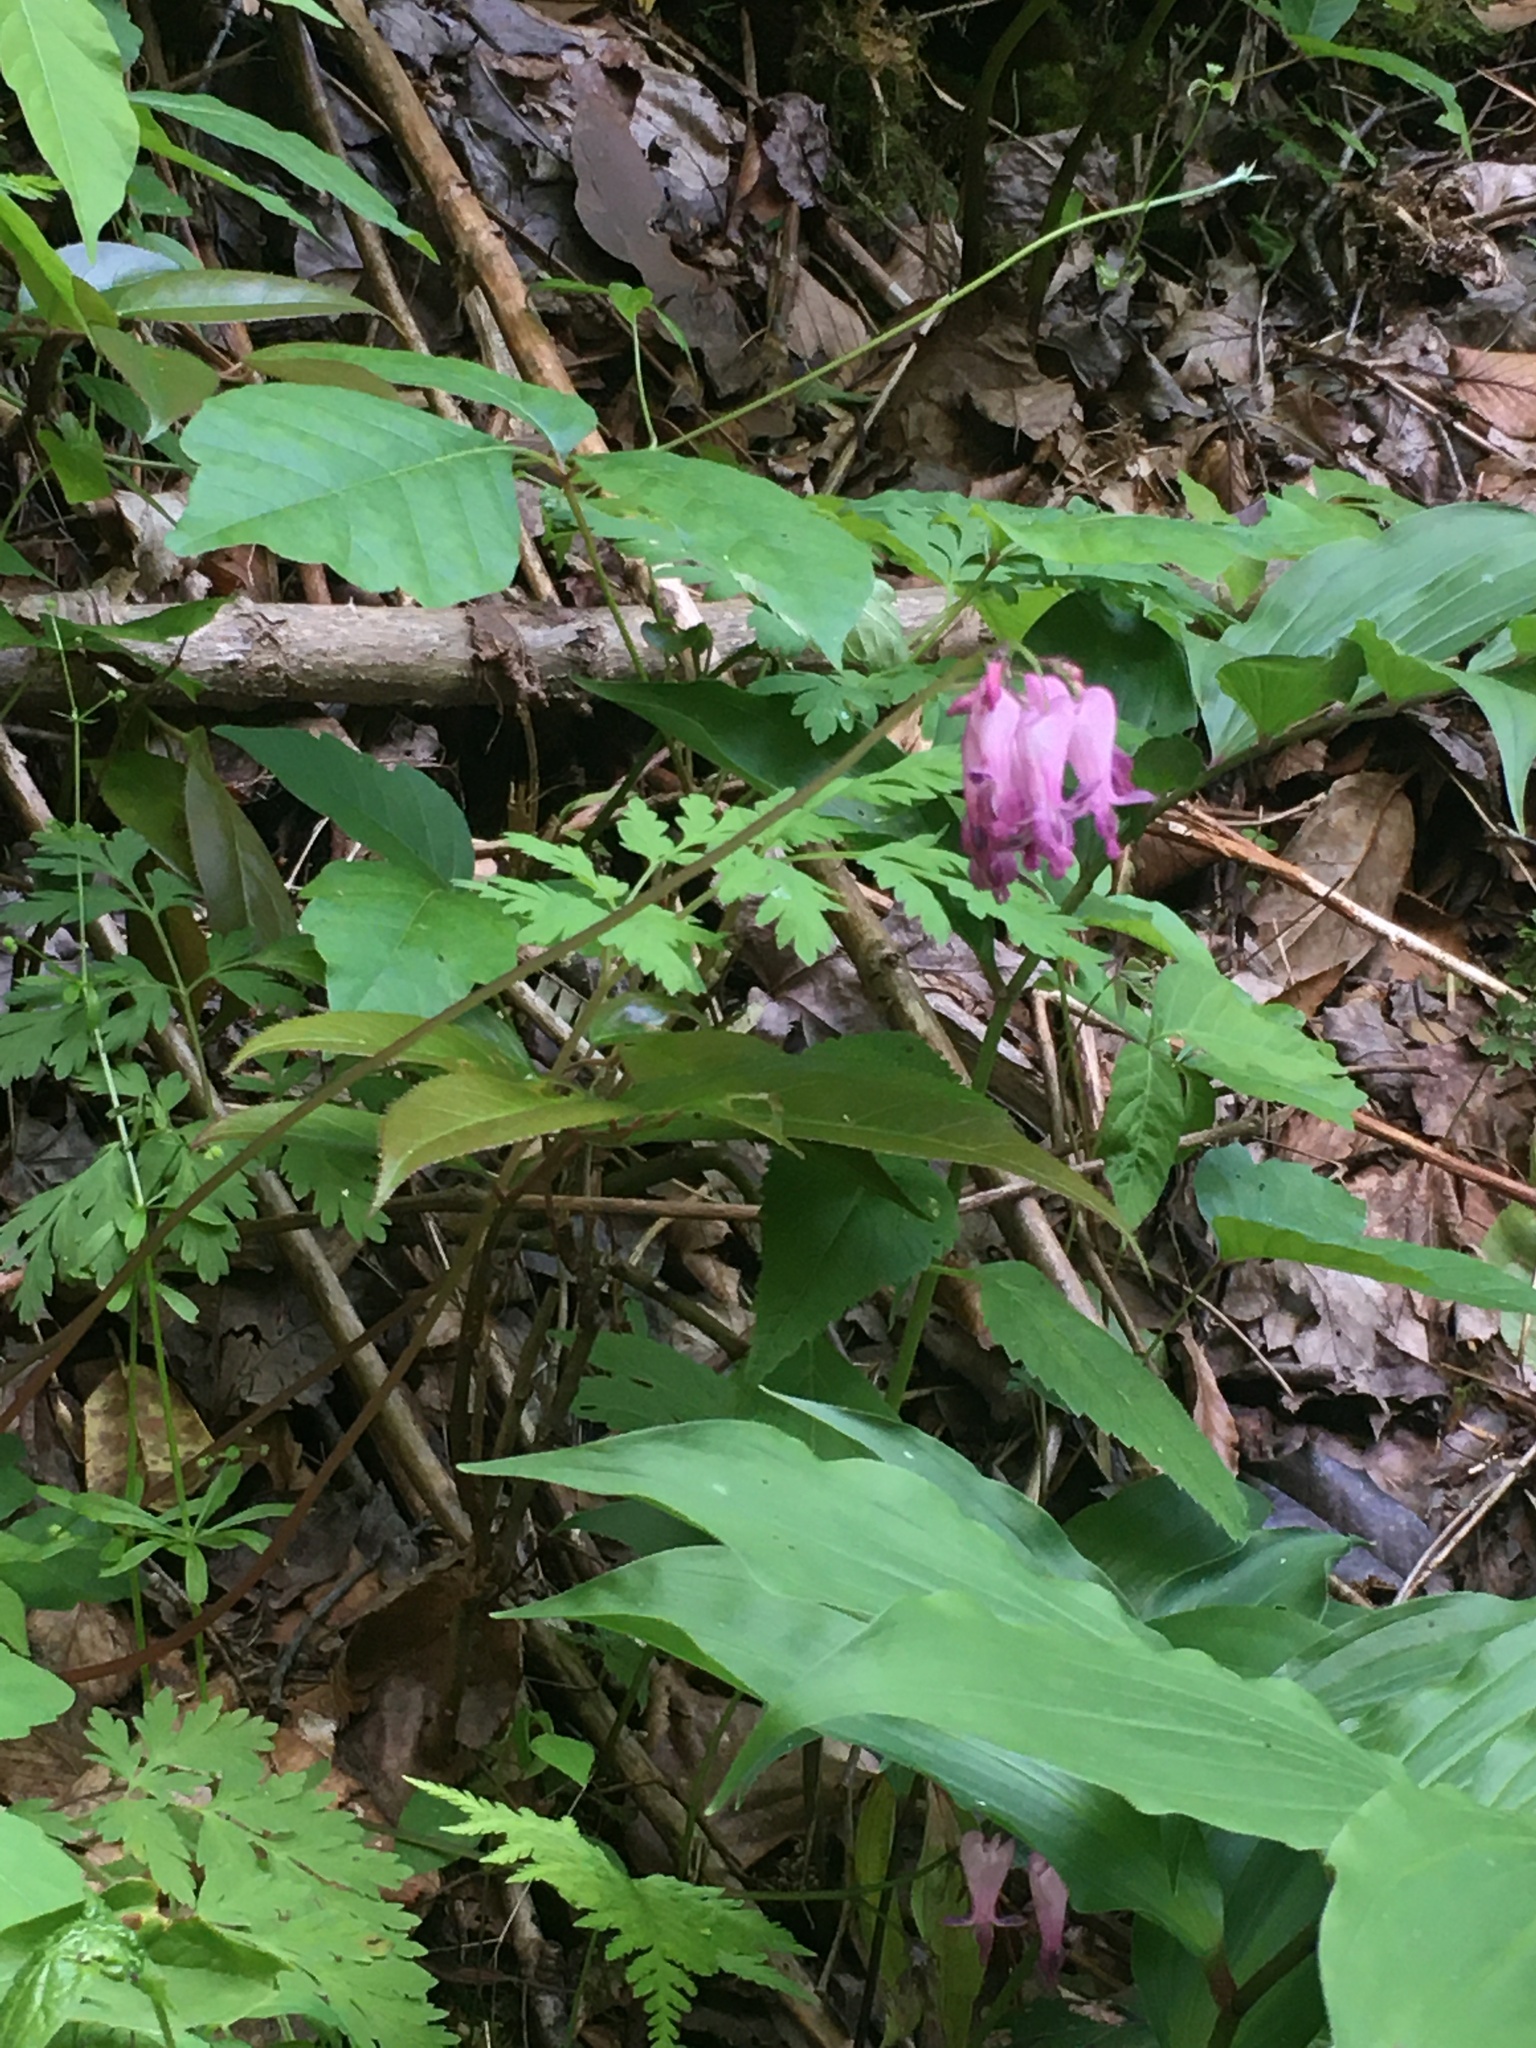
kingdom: Plantae
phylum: Tracheophyta
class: Magnoliopsida
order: Ranunculales
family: Papaveraceae
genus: Dicentra
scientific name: Dicentra eximia
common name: Turkey-corn
